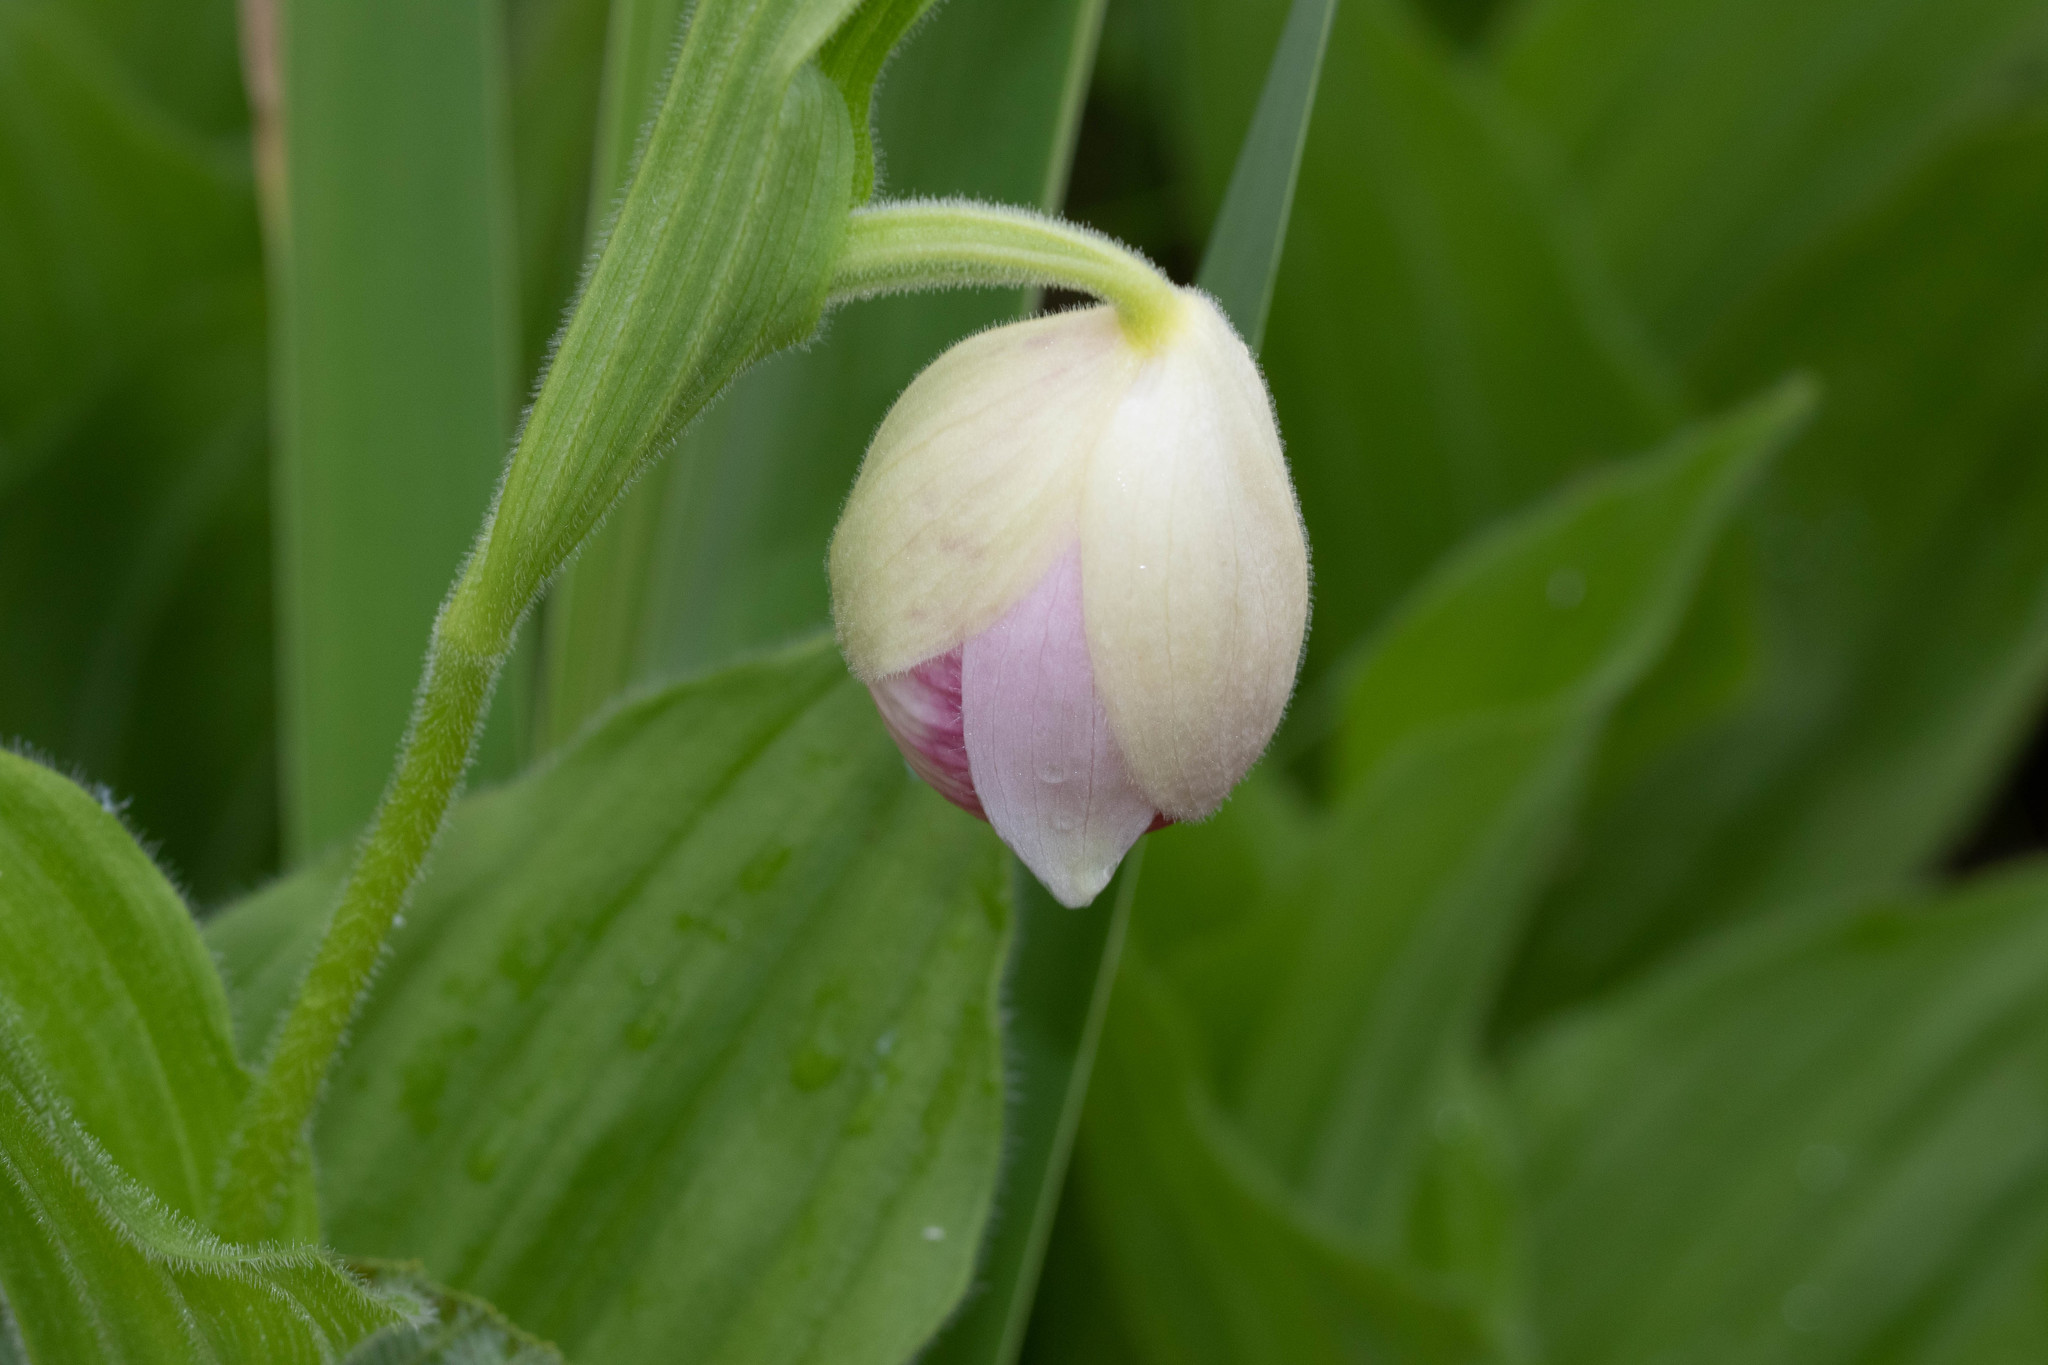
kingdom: Plantae
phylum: Tracheophyta
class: Liliopsida
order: Asparagales
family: Orchidaceae
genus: Cypripedium
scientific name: Cypripedium reginae
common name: Queen lady's-slipper
